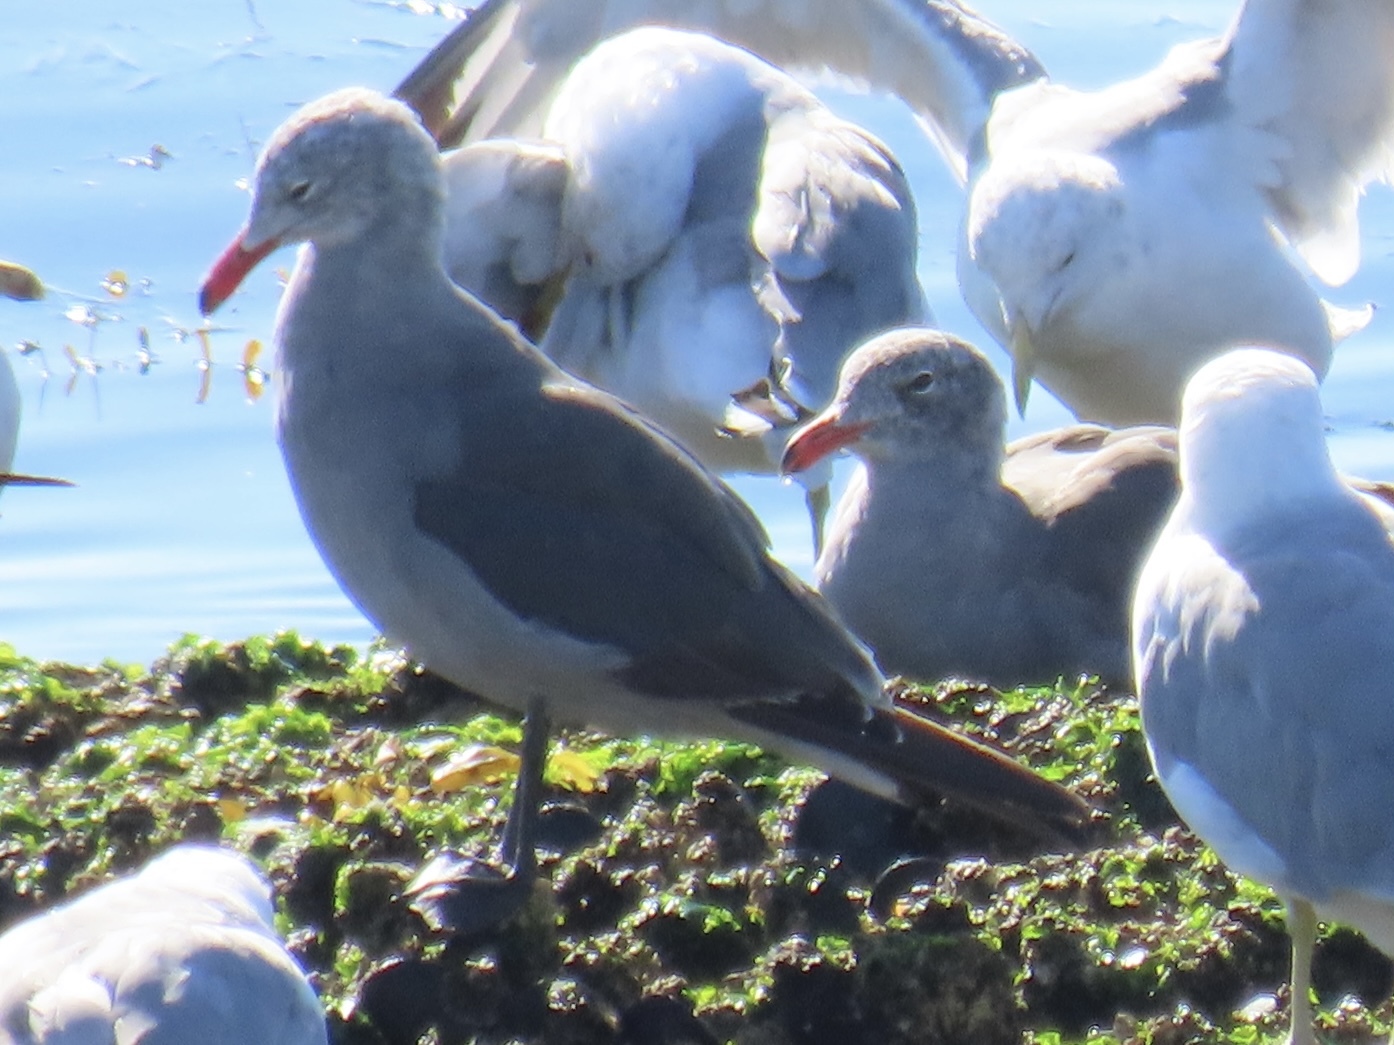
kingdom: Animalia
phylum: Chordata
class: Aves
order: Charadriiformes
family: Laridae
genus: Larus
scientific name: Larus heermanni
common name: Heermann's gull
